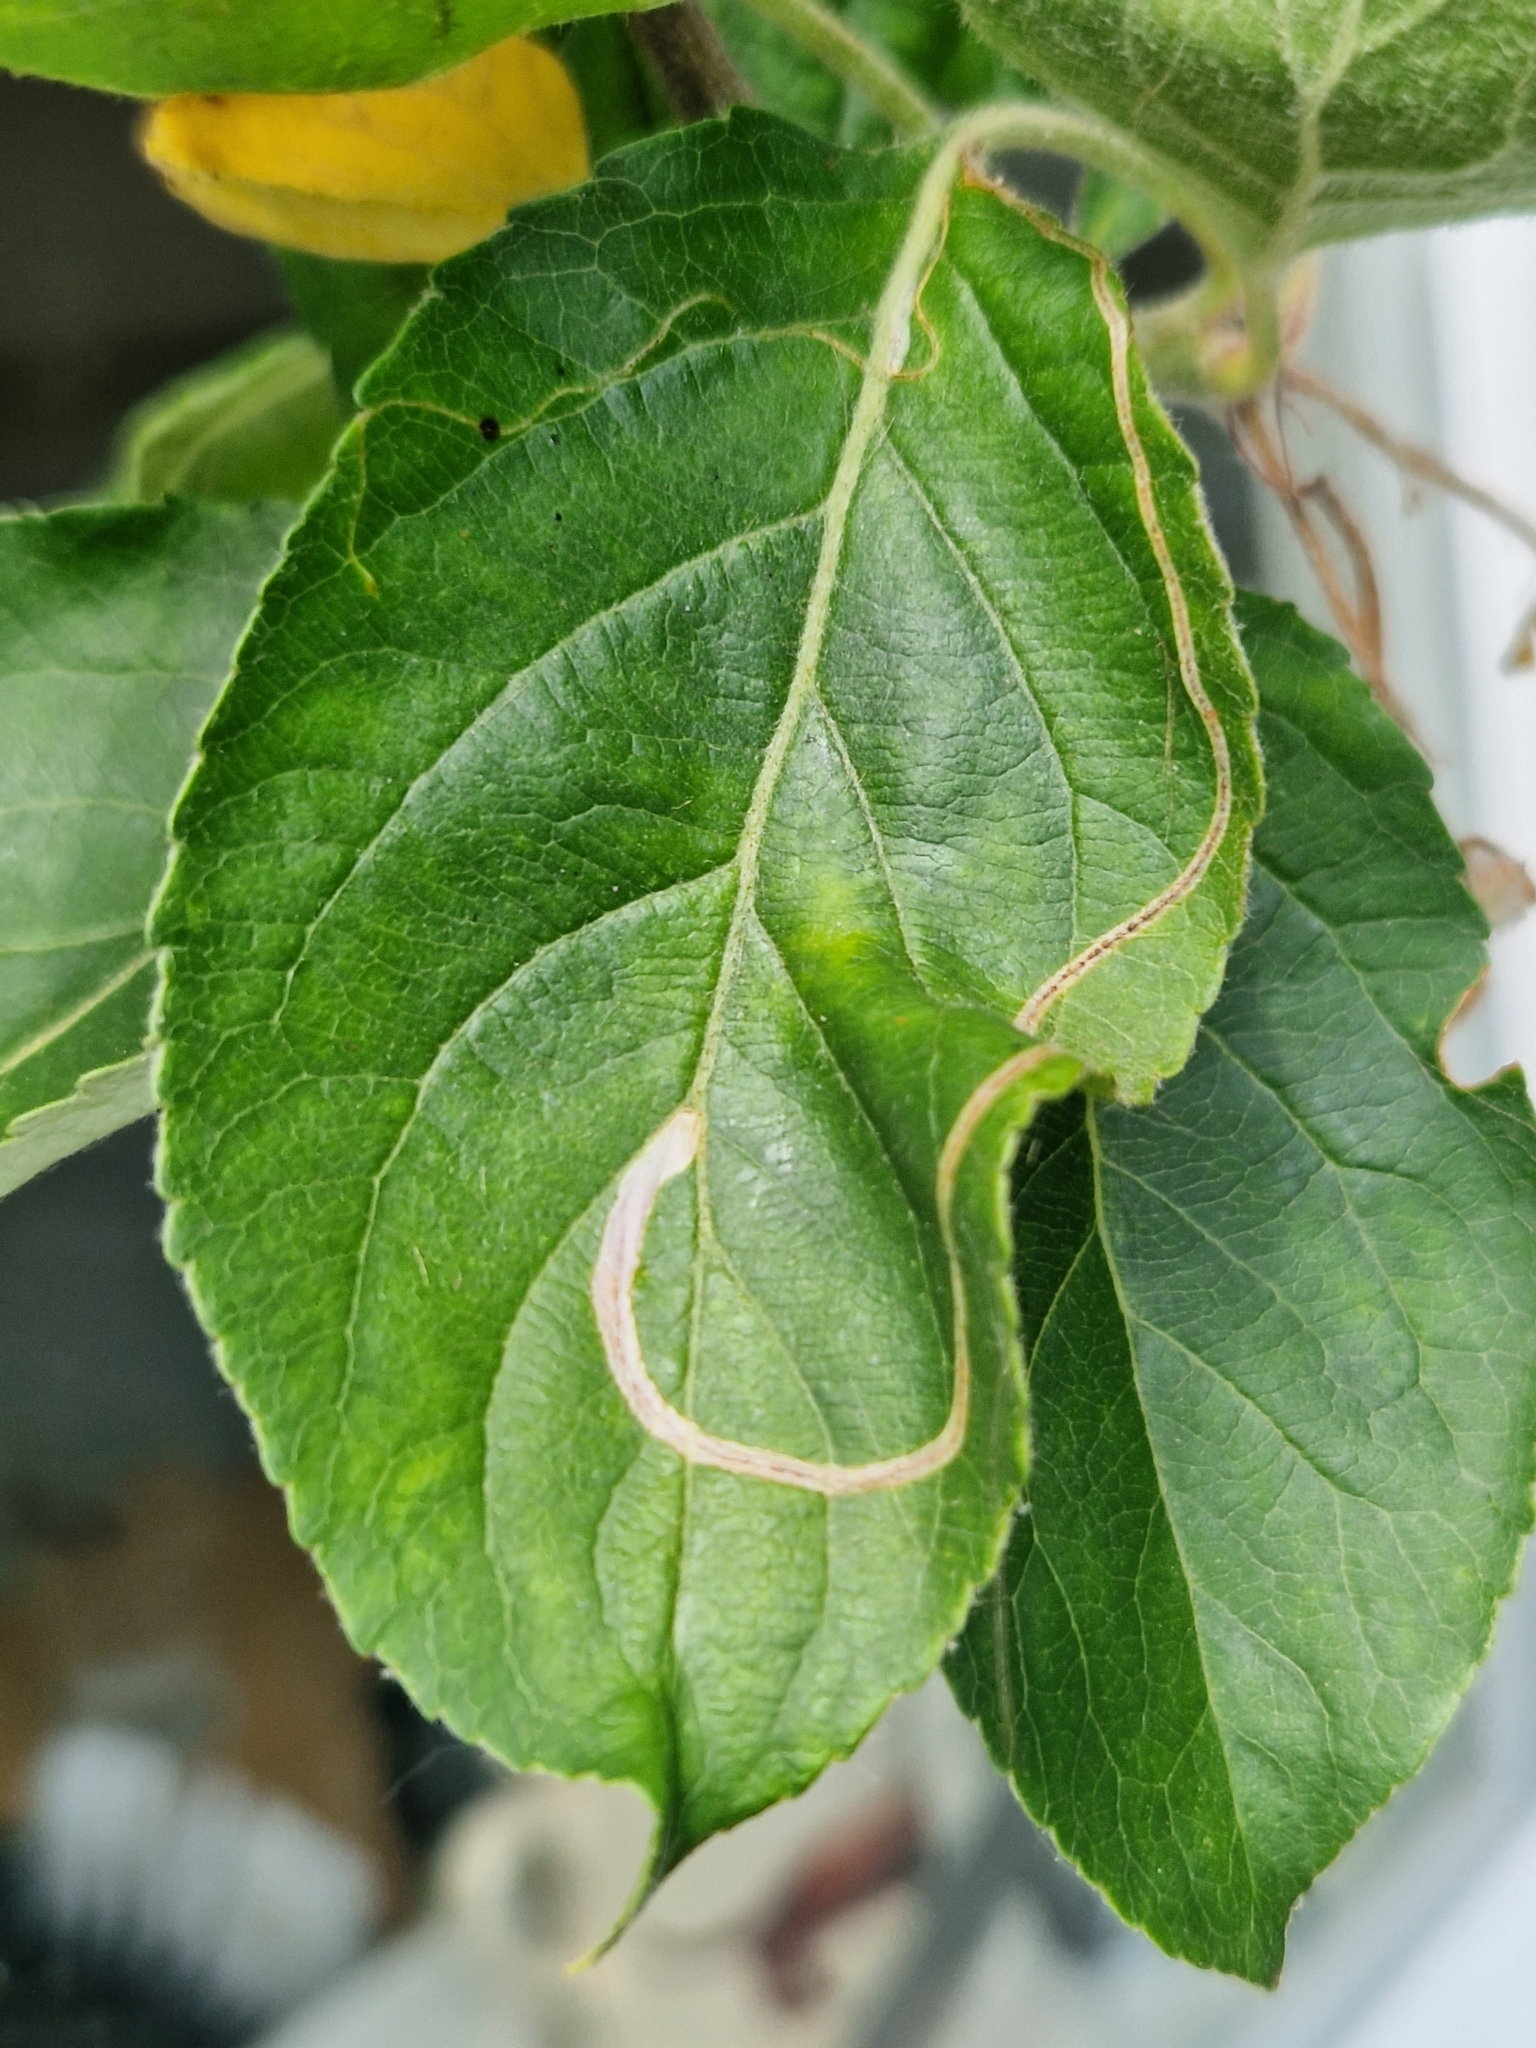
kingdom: Animalia
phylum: Arthropoda
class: Insecta
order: Lepidoptera
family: Lyonetiidae
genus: Lyonetia
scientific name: Lyonetia clerkella
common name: Apple leaf miner
